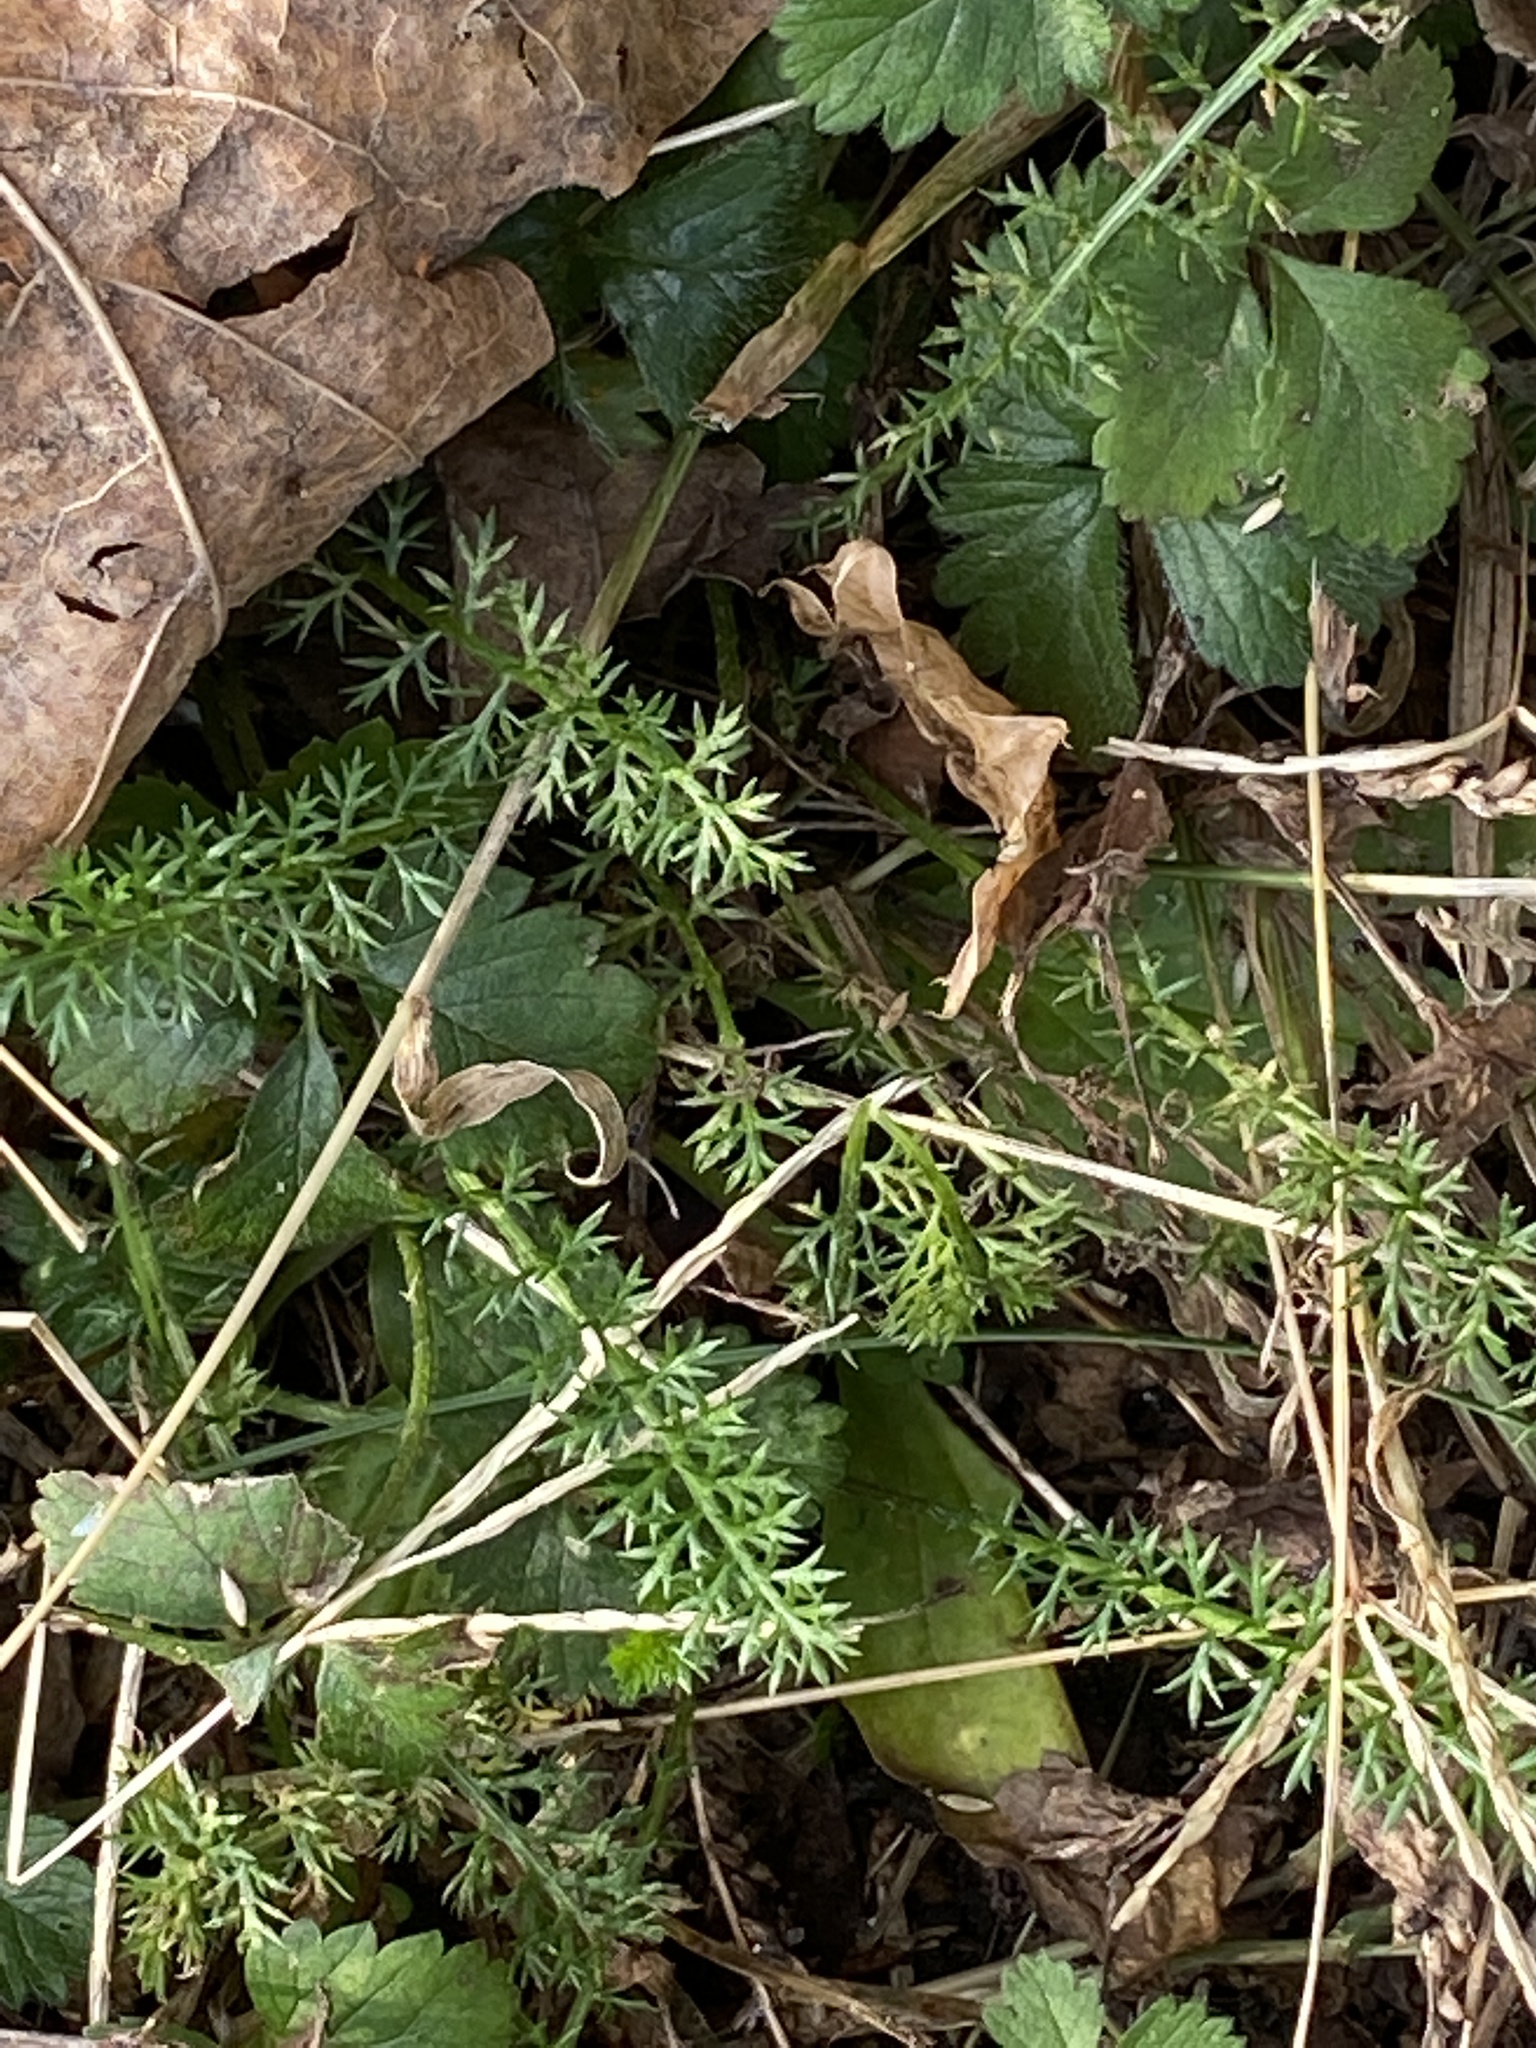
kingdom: Plantae
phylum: Tracheophyta
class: Magnoliopsida
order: Asterales
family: Asteraceae
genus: Achillea
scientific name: Achillea millefolium
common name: Yarrow
